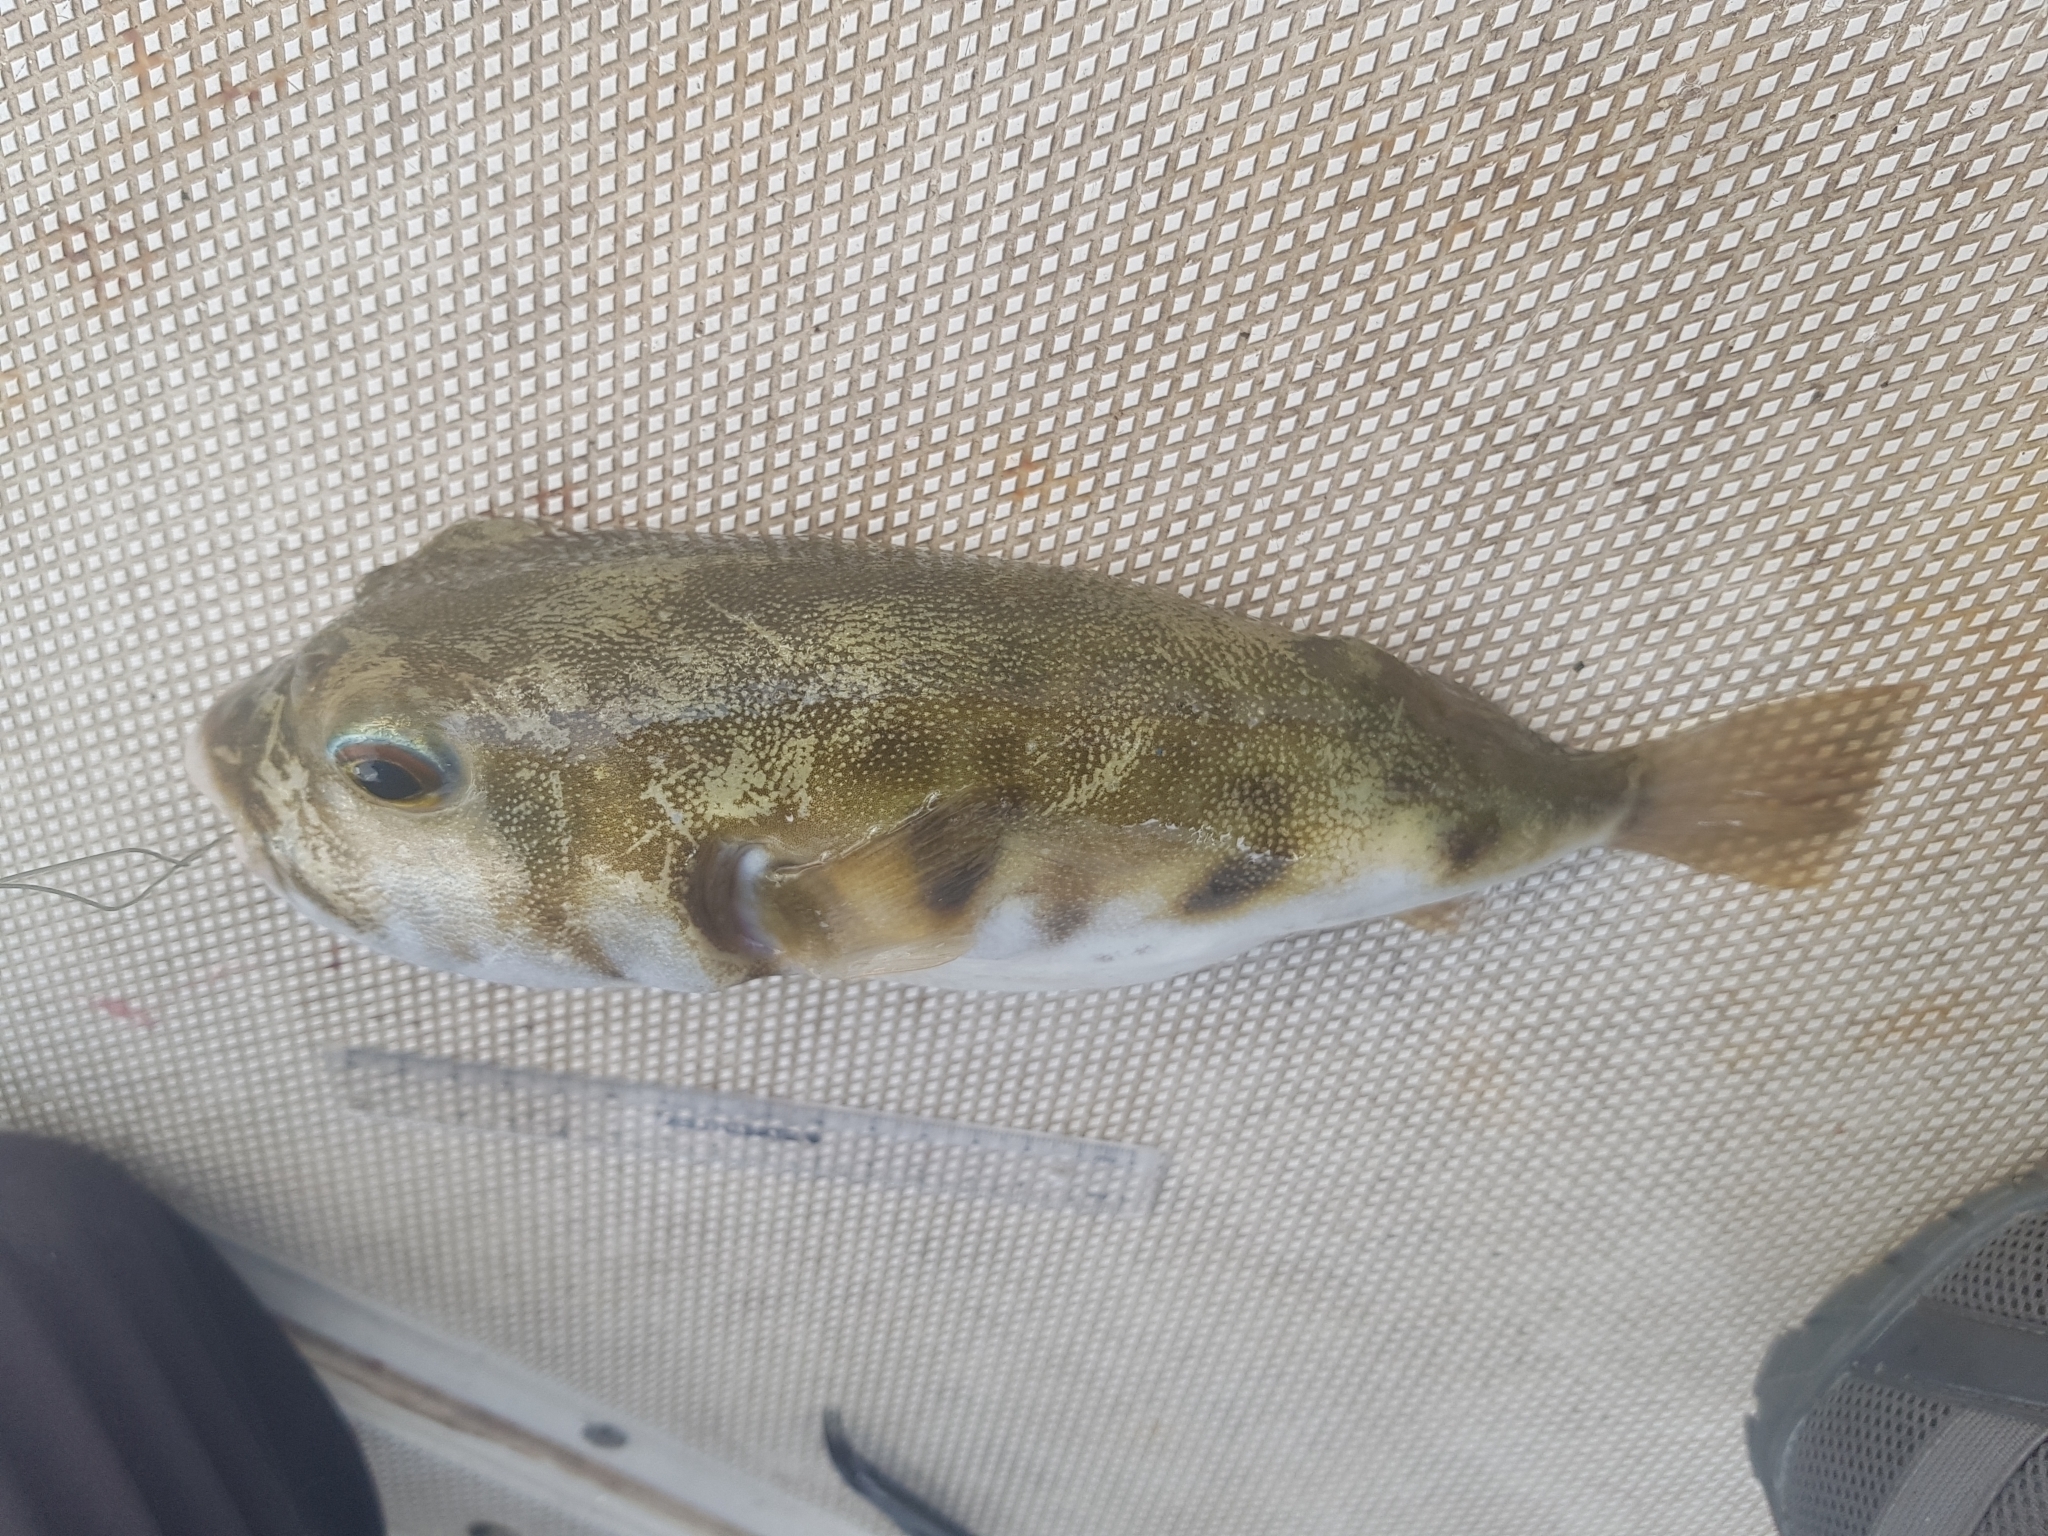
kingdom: Animalia
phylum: Chordata
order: Tetraodontiformes
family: Tetraodontidae
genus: Contusus
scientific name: Contusus brevicaudus
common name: Prickly toadfish
